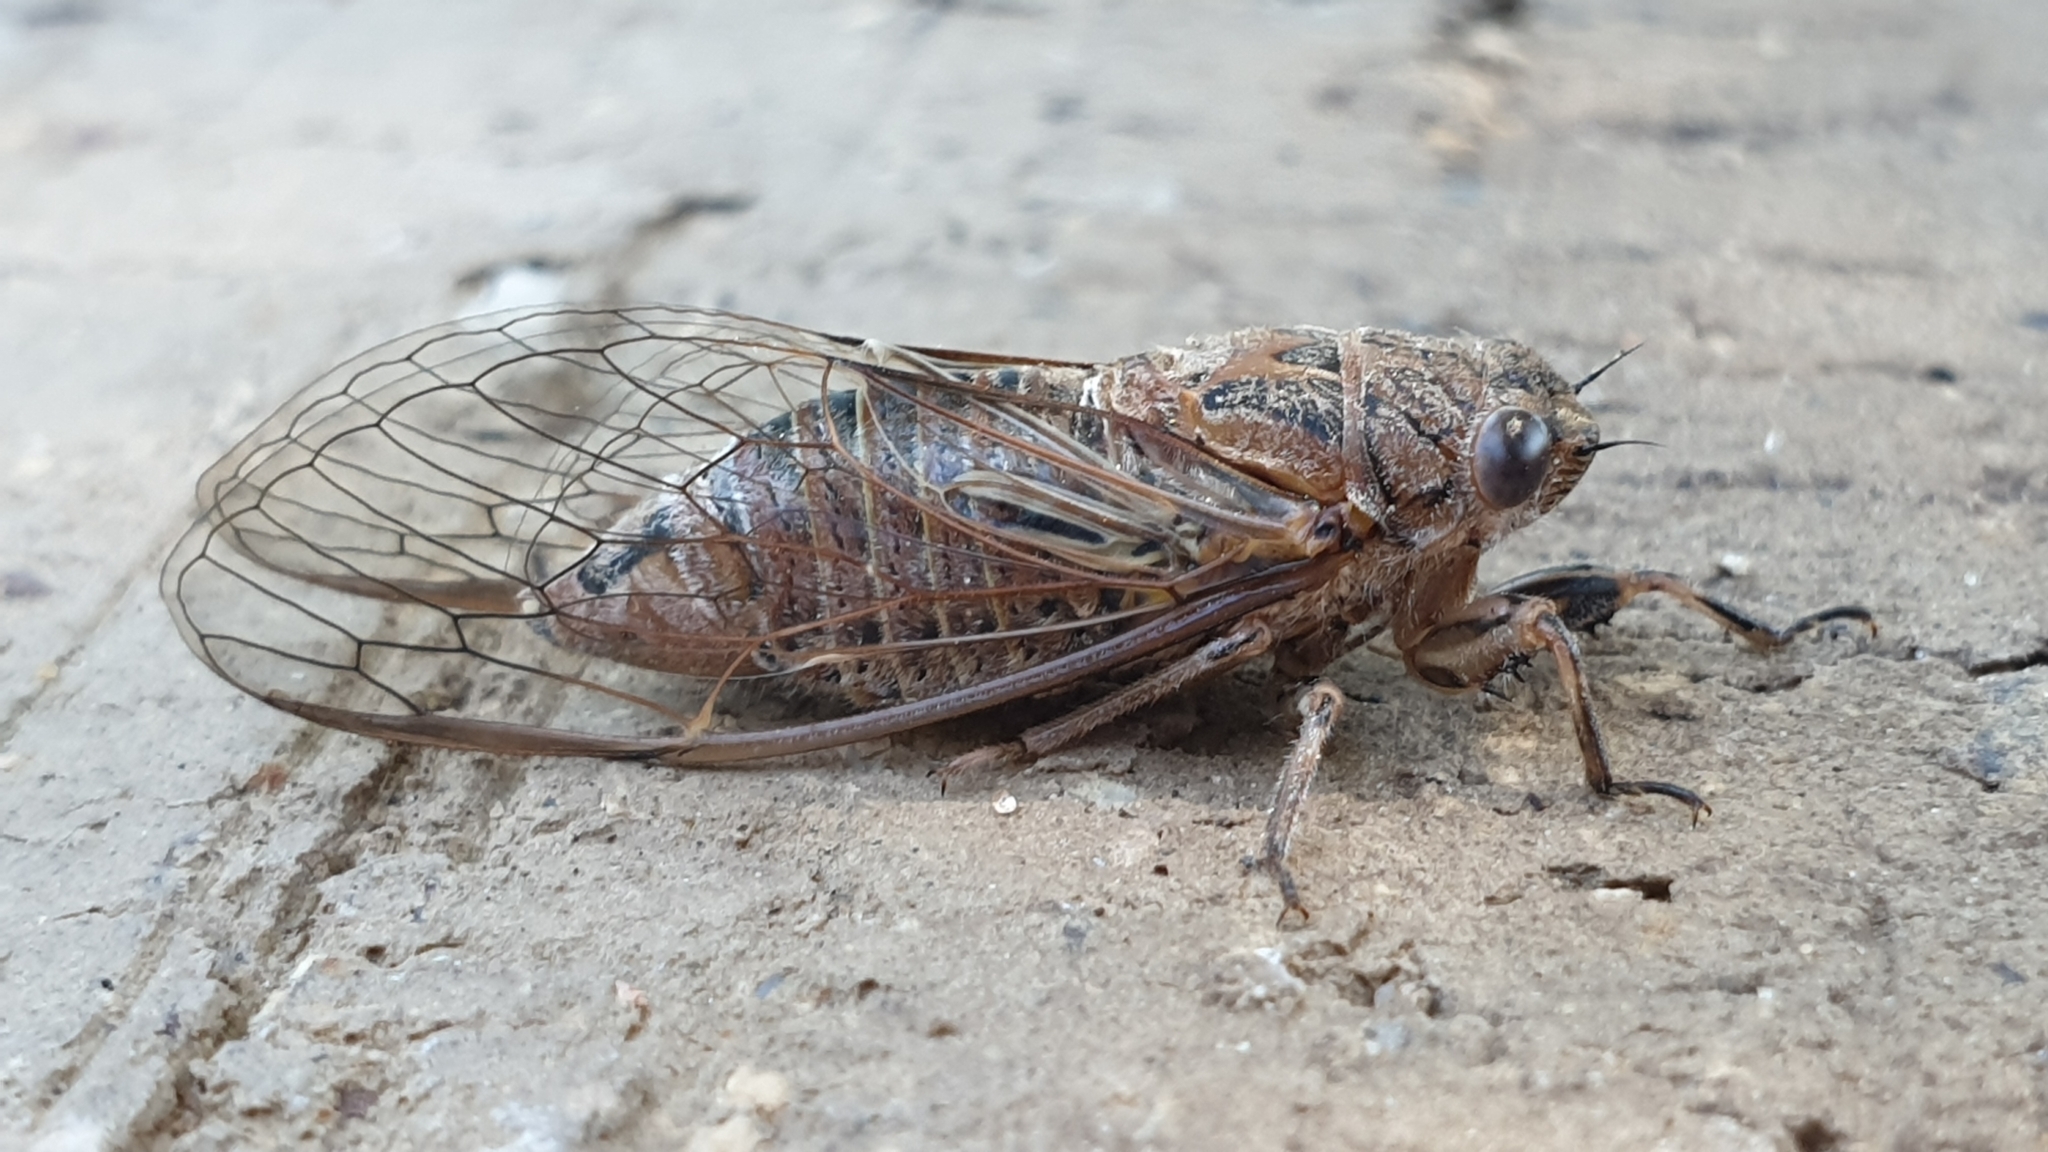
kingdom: Animalia
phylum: Arthropoda
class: Insecta
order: Hemiptera
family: Cicadidae
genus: Physeema
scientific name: Physeema labyrinthica
